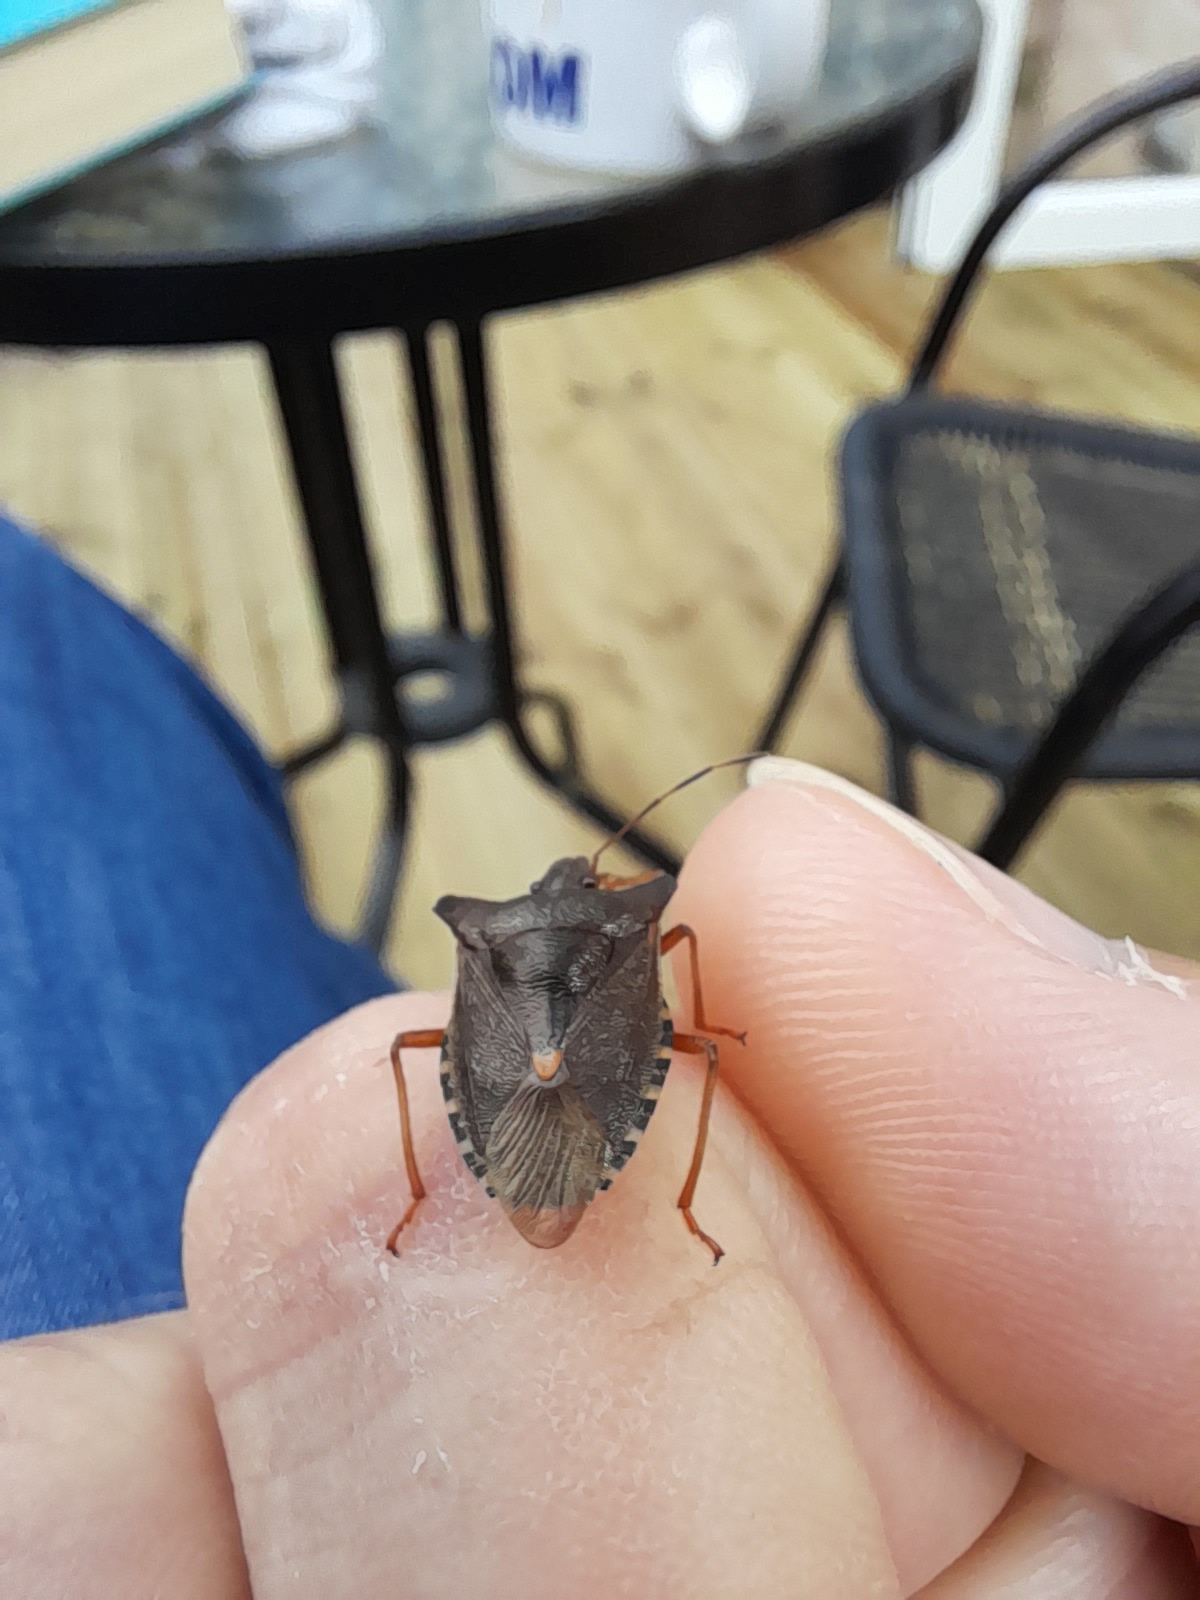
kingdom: Animalia
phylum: Arthropoda
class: Insecta
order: Hemiptera
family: Pentatomidae
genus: Pentatoma
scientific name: Pentatoma rufipes
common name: Forest bug
